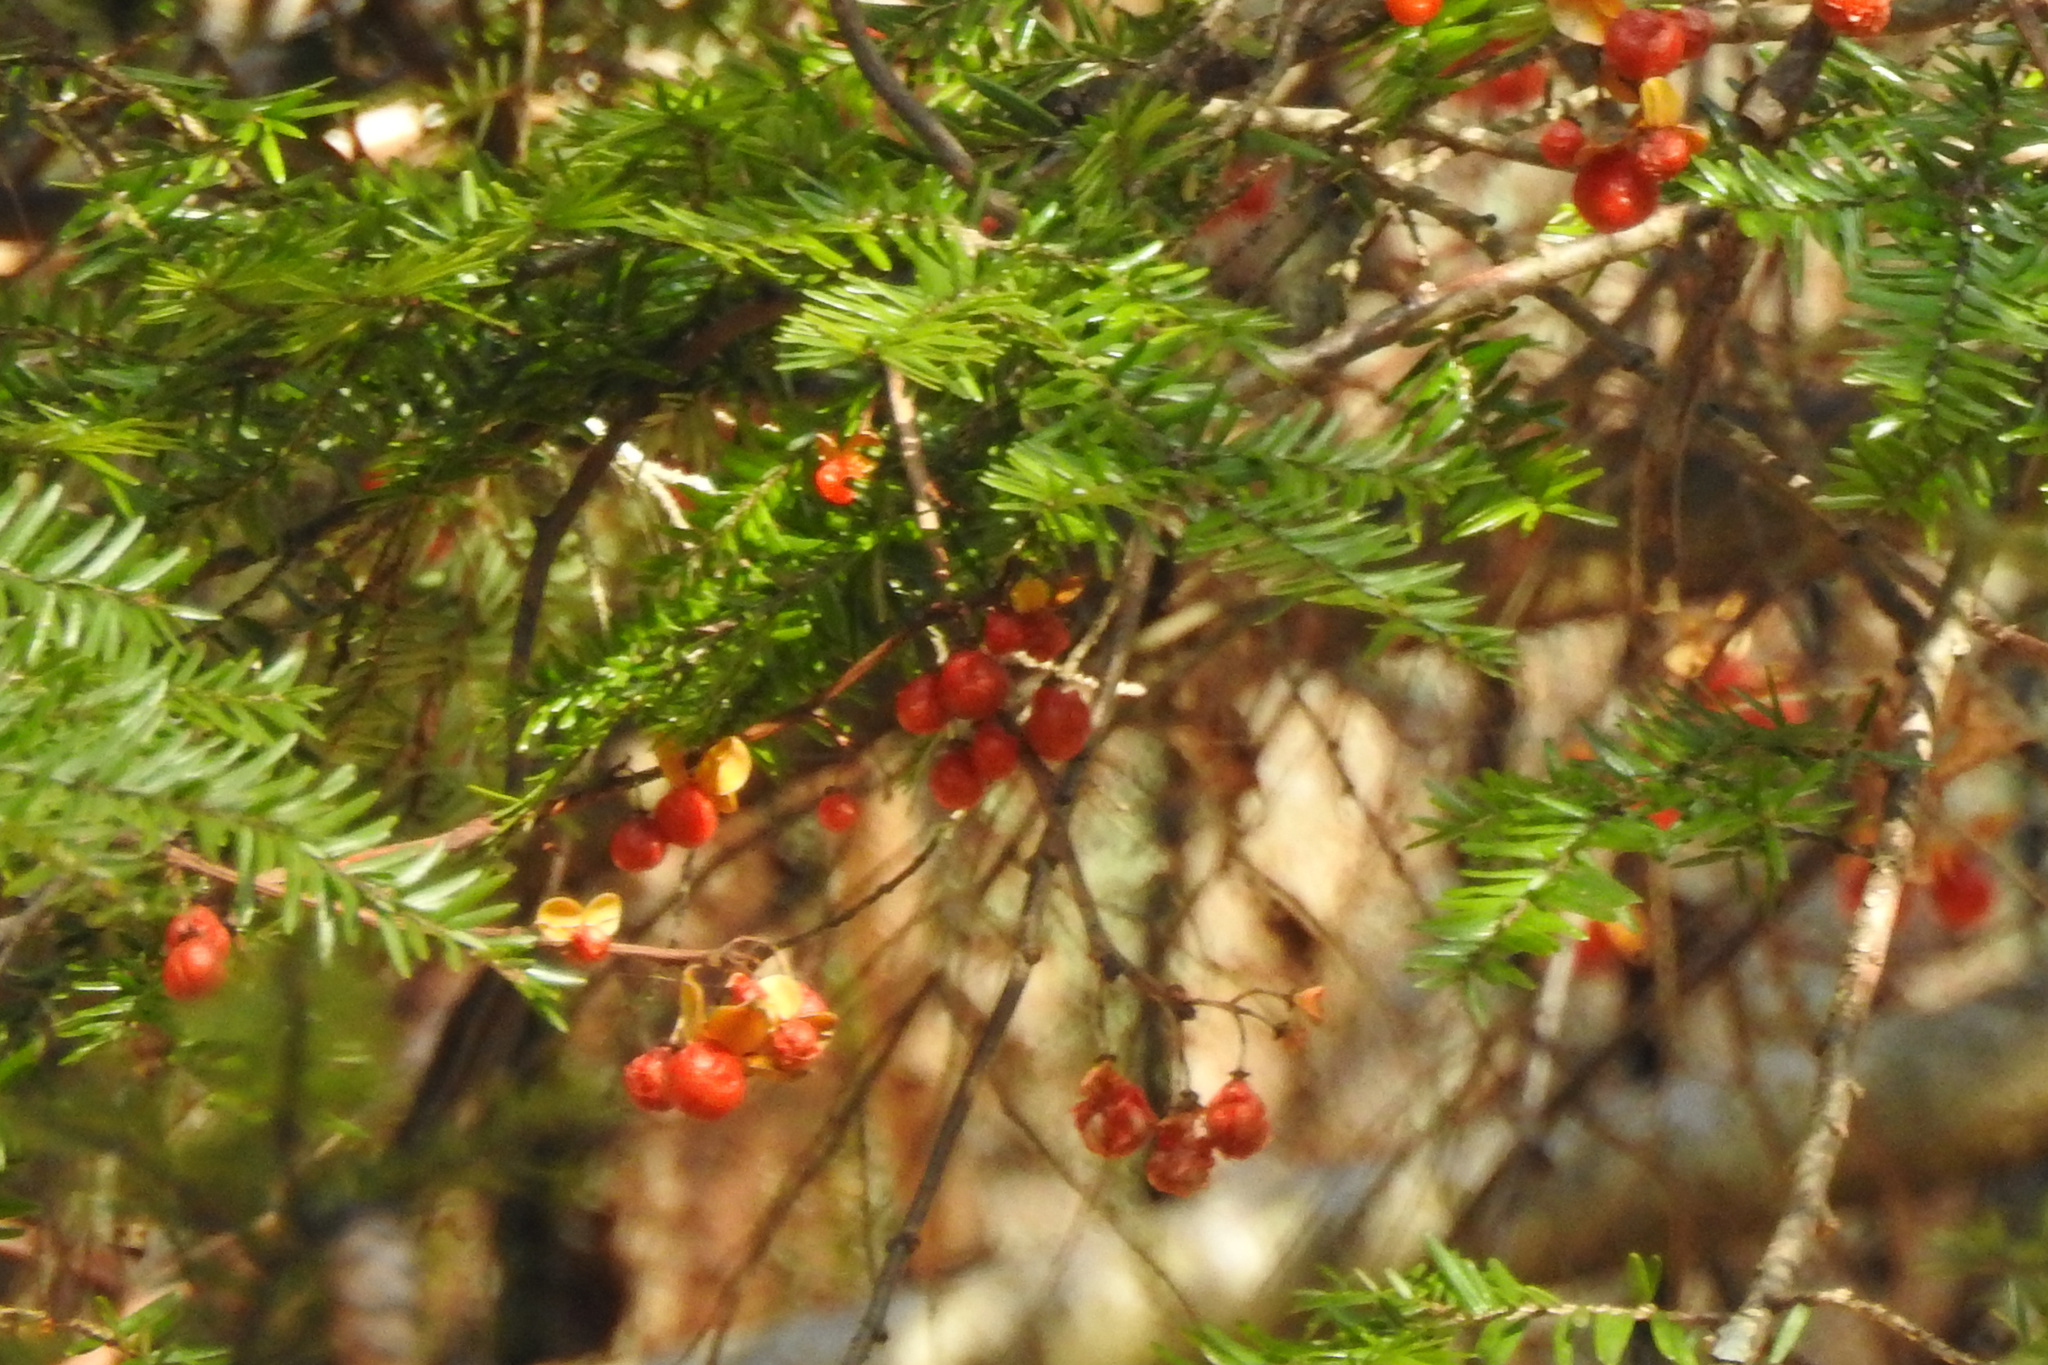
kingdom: Plantae
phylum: Tracheophyta
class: Magnoliopsida
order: Celastrales
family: Celastraceae
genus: Celastrus
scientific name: Celastrus orbiculatus
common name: Oriental bittersweet
